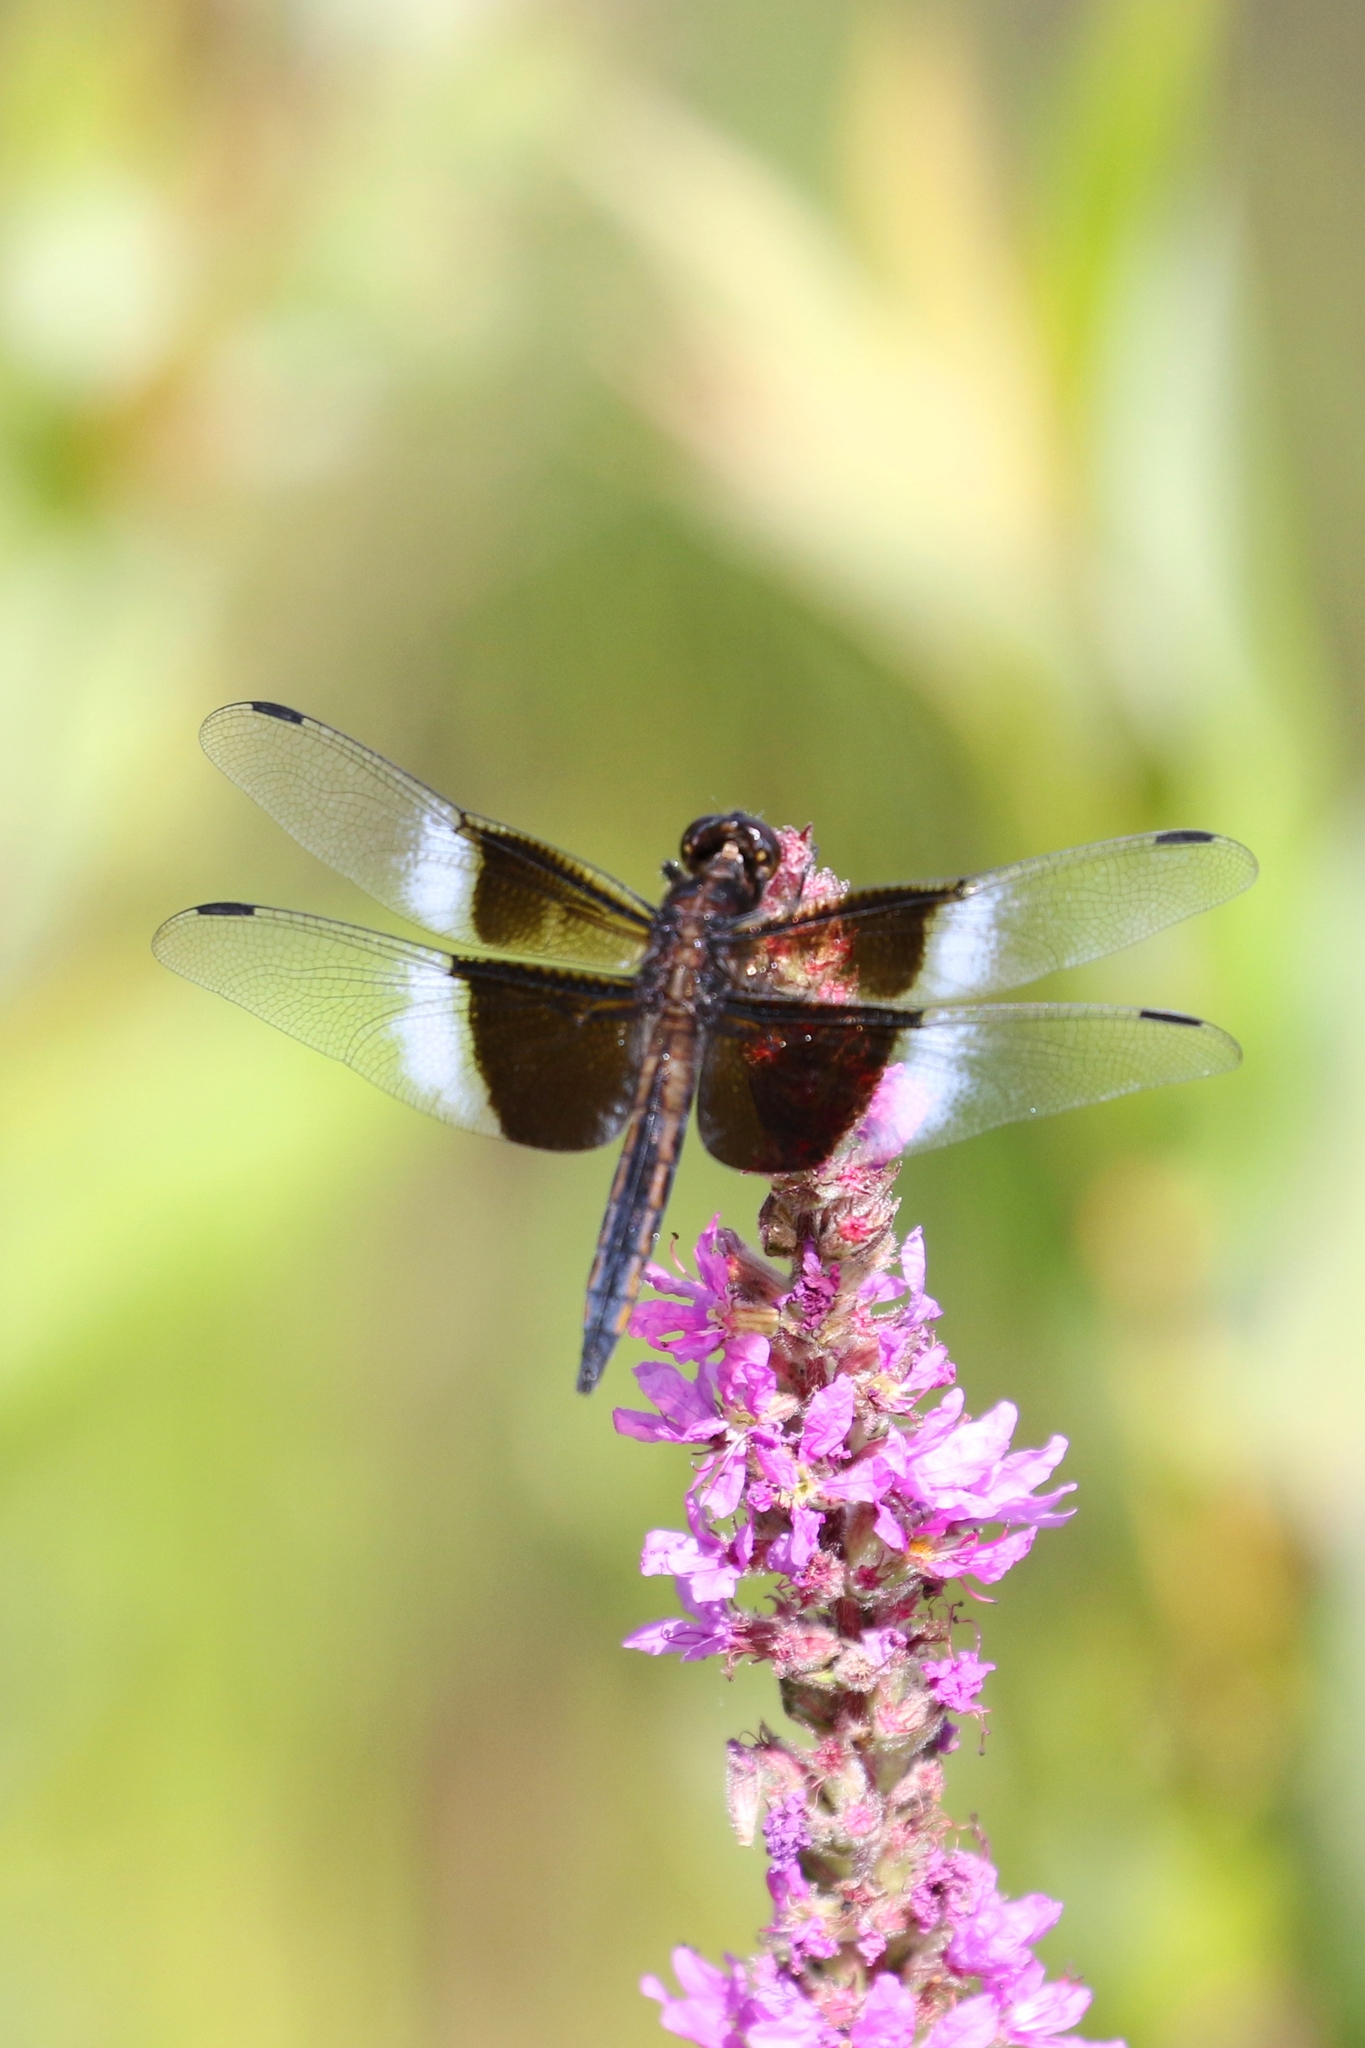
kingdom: Animalia
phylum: Arthropoda
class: Insecta
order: Odonata
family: Libellulidae
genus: Libellula
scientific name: Libellula luctuosa
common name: Widow skimmer
